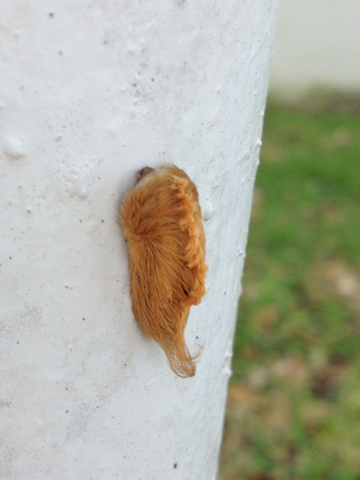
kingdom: Animalia
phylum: Arthropoda
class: Insecta
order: Lepidoptera
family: Megalopygidae
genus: Megalopyge
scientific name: Megalopyge opercularis
